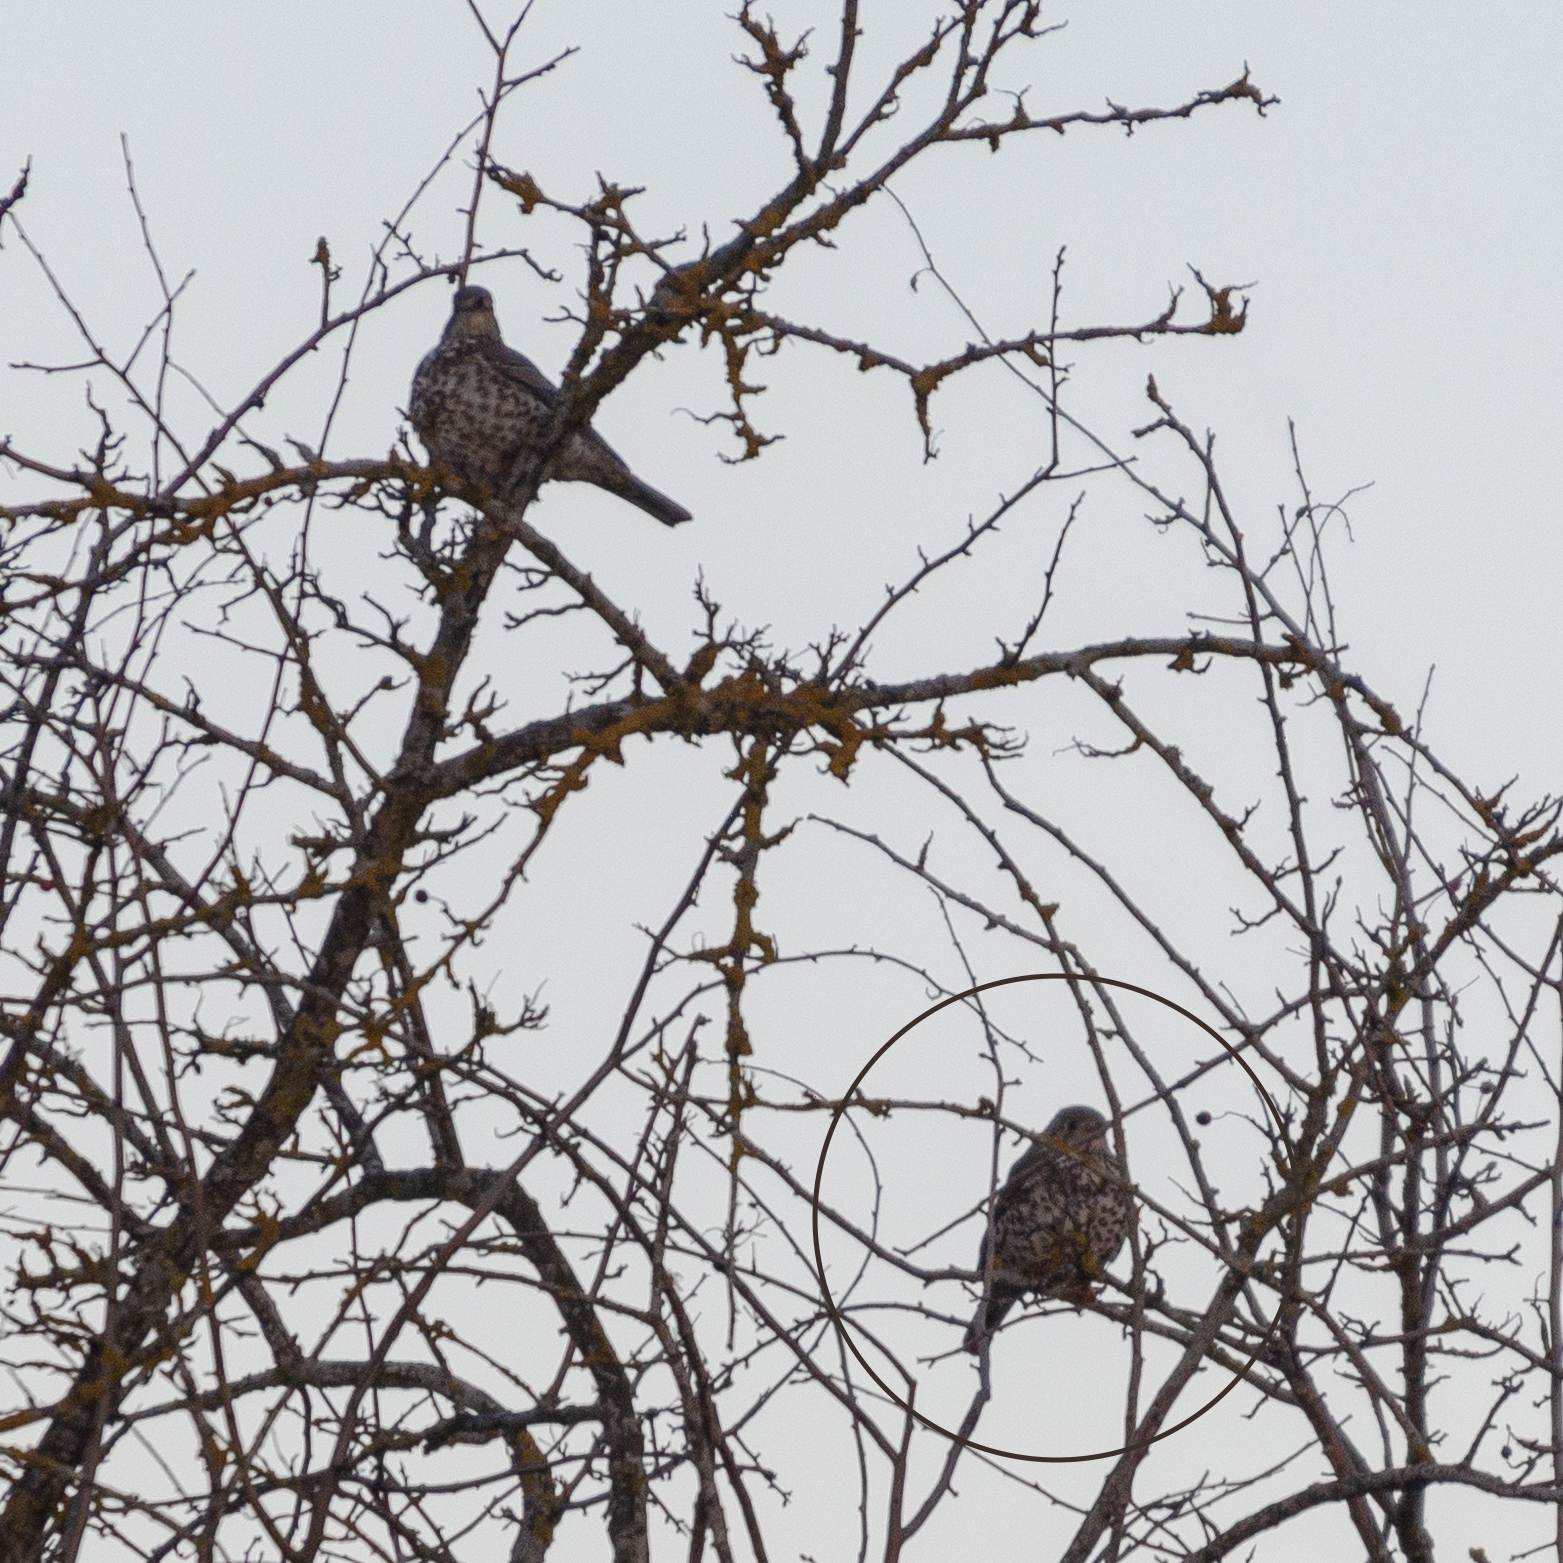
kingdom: Animalia
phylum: Chordata
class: Aves
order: Passeriformes
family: Turdidae
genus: Turdus
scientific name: Turdus viscivorus
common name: Mistle thrush
